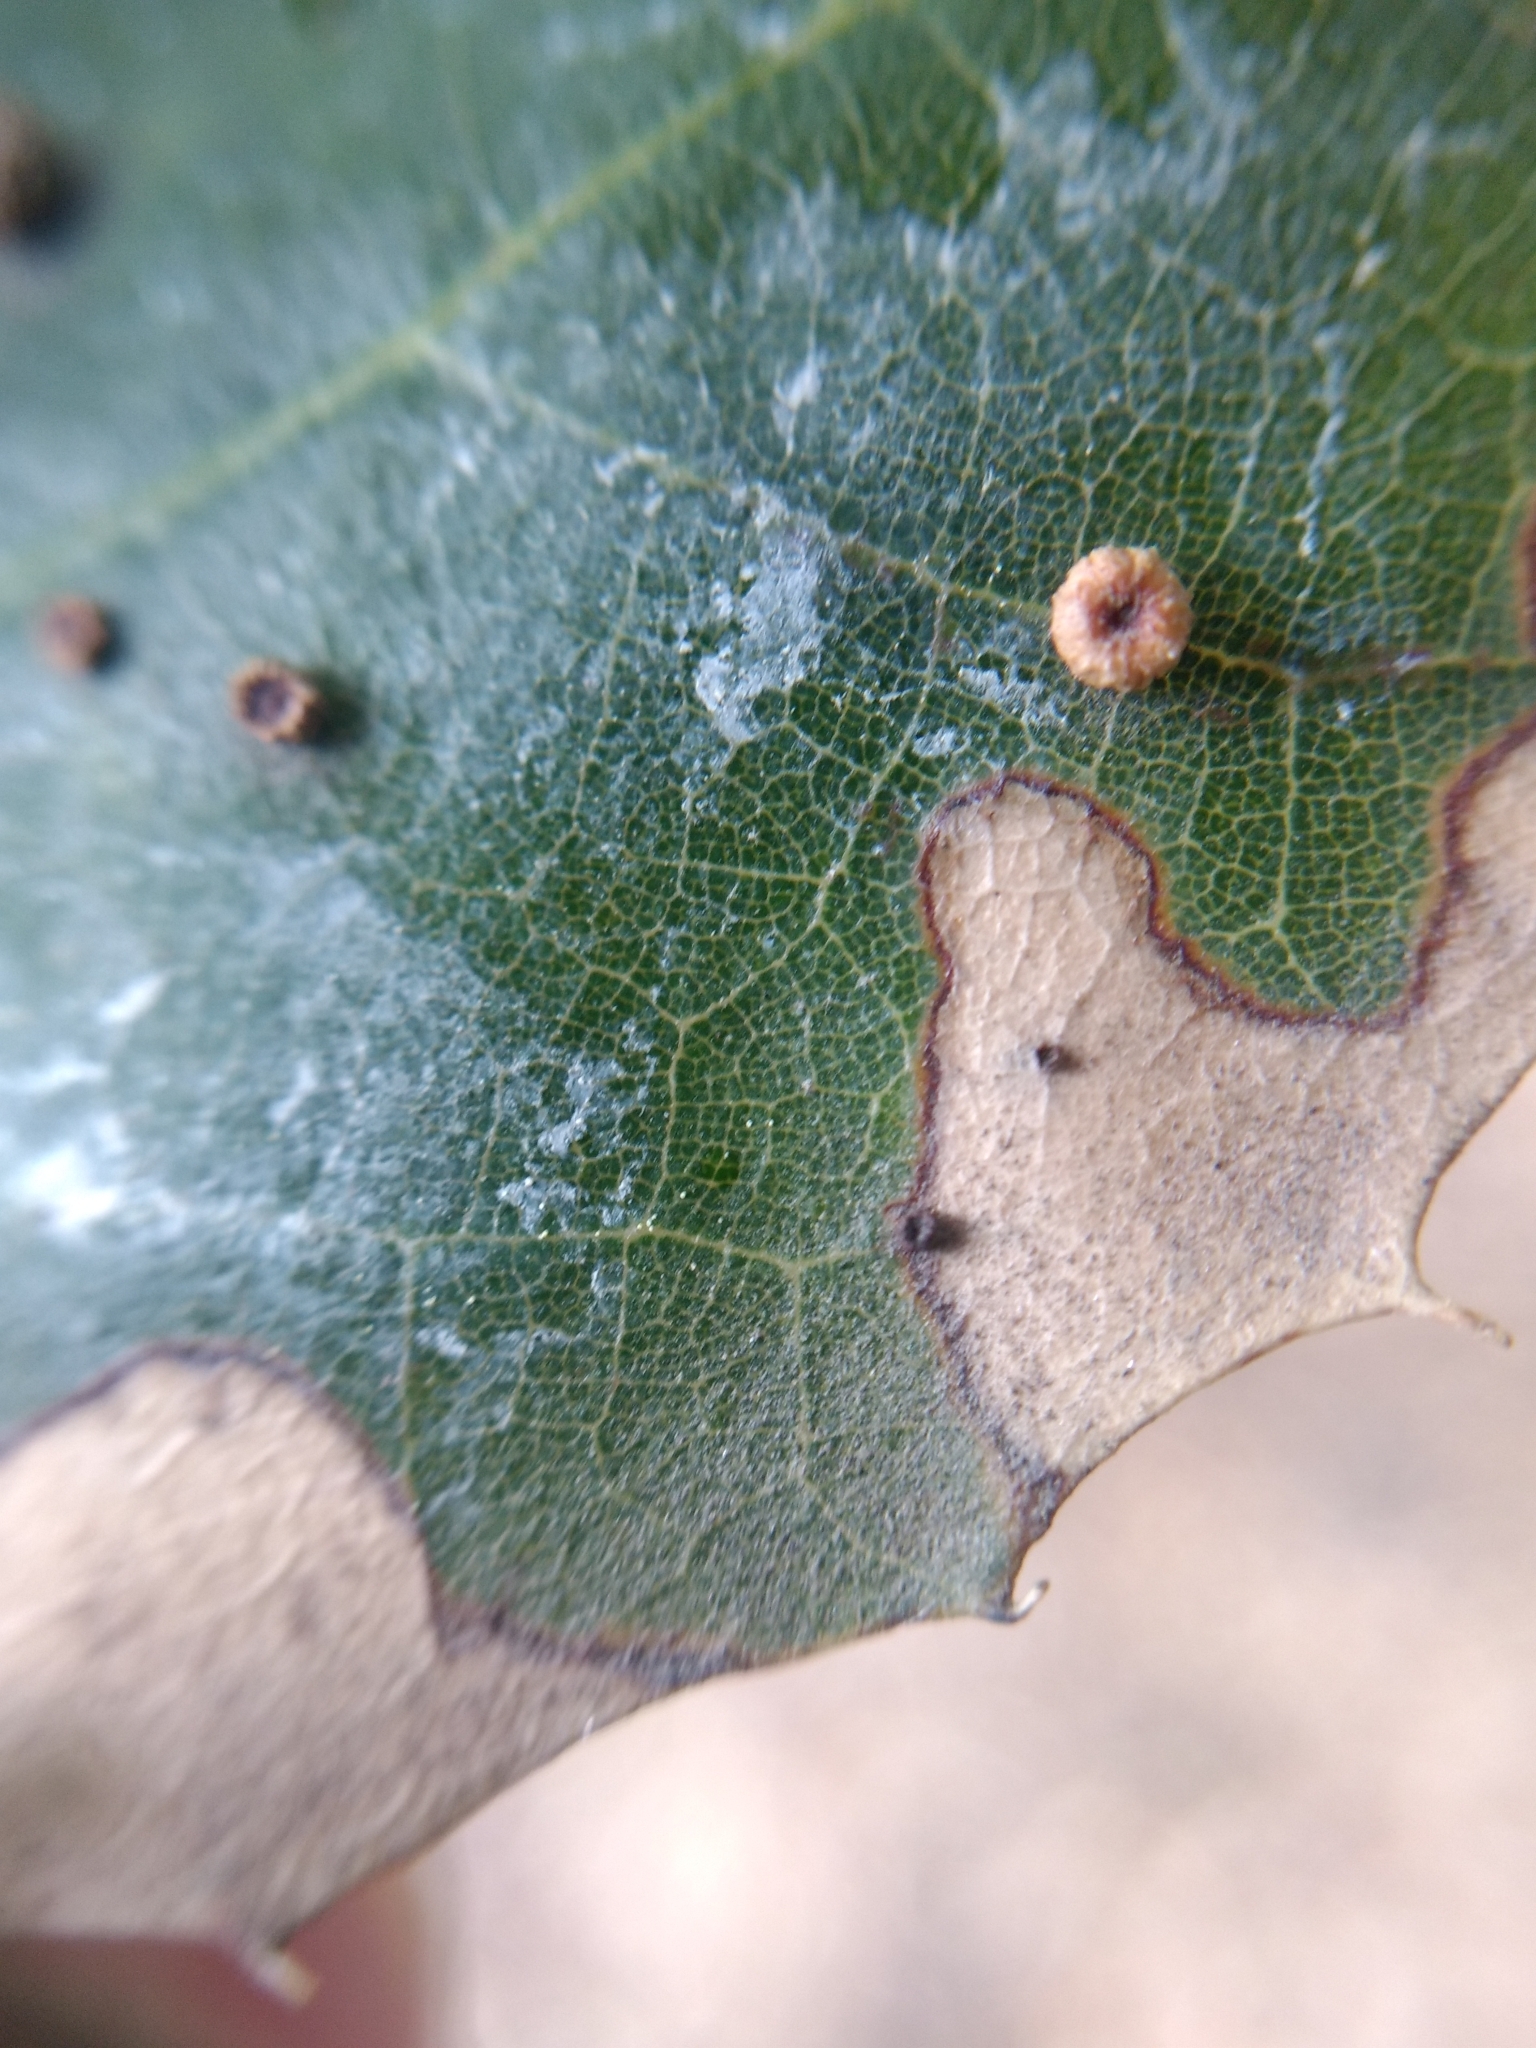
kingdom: Animalia
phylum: Arthropoda
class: Insecta
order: Hymenoptera
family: Cynipidae
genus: Dryocosmus
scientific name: Dryocosmus
